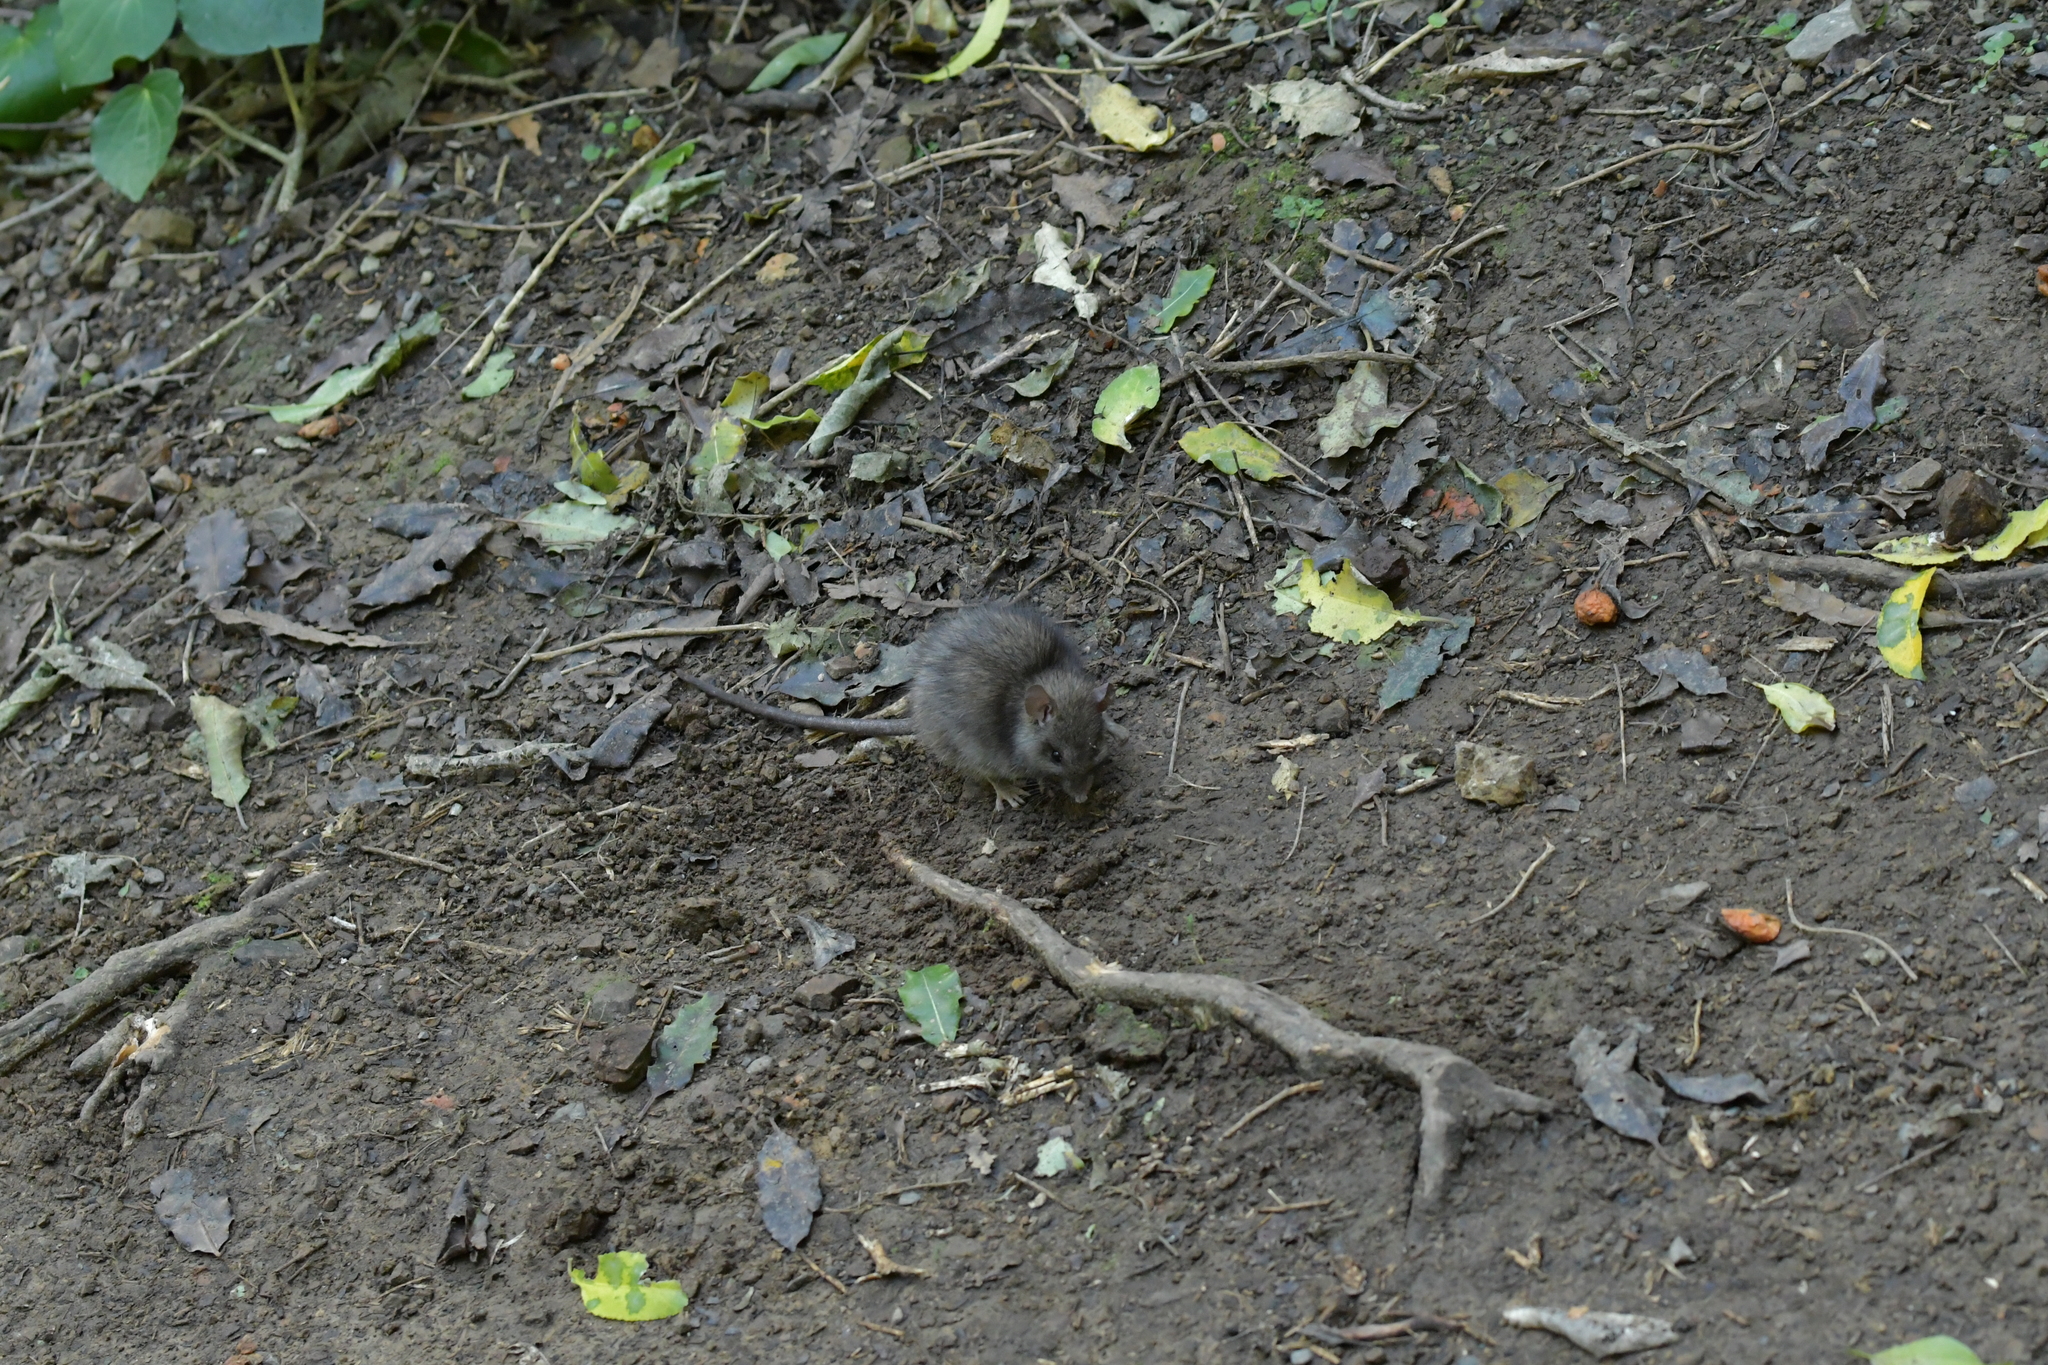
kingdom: Animalia
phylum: Chordata
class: Mammalia
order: Rodentia
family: Muridae
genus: Rattus
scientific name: Rattus rattus
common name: Black rat
